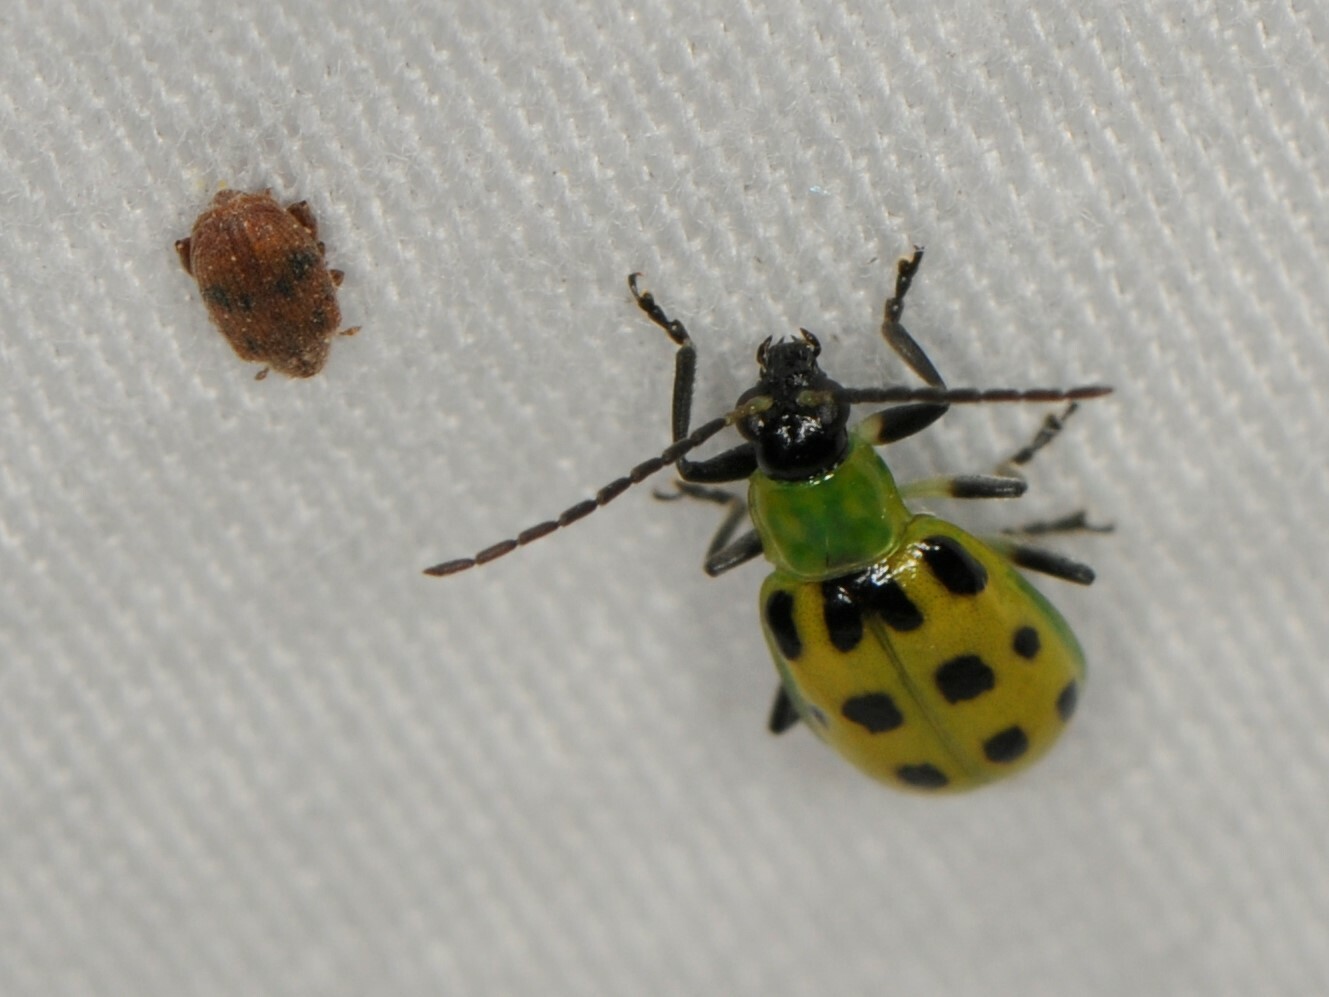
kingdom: Animalia
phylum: Arthropoda
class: Insecta
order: Coleoptera
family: Chrysomelidae
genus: Diabrotica
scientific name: Diabrotica undecimpunctata
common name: Spotted cucumber beetle
